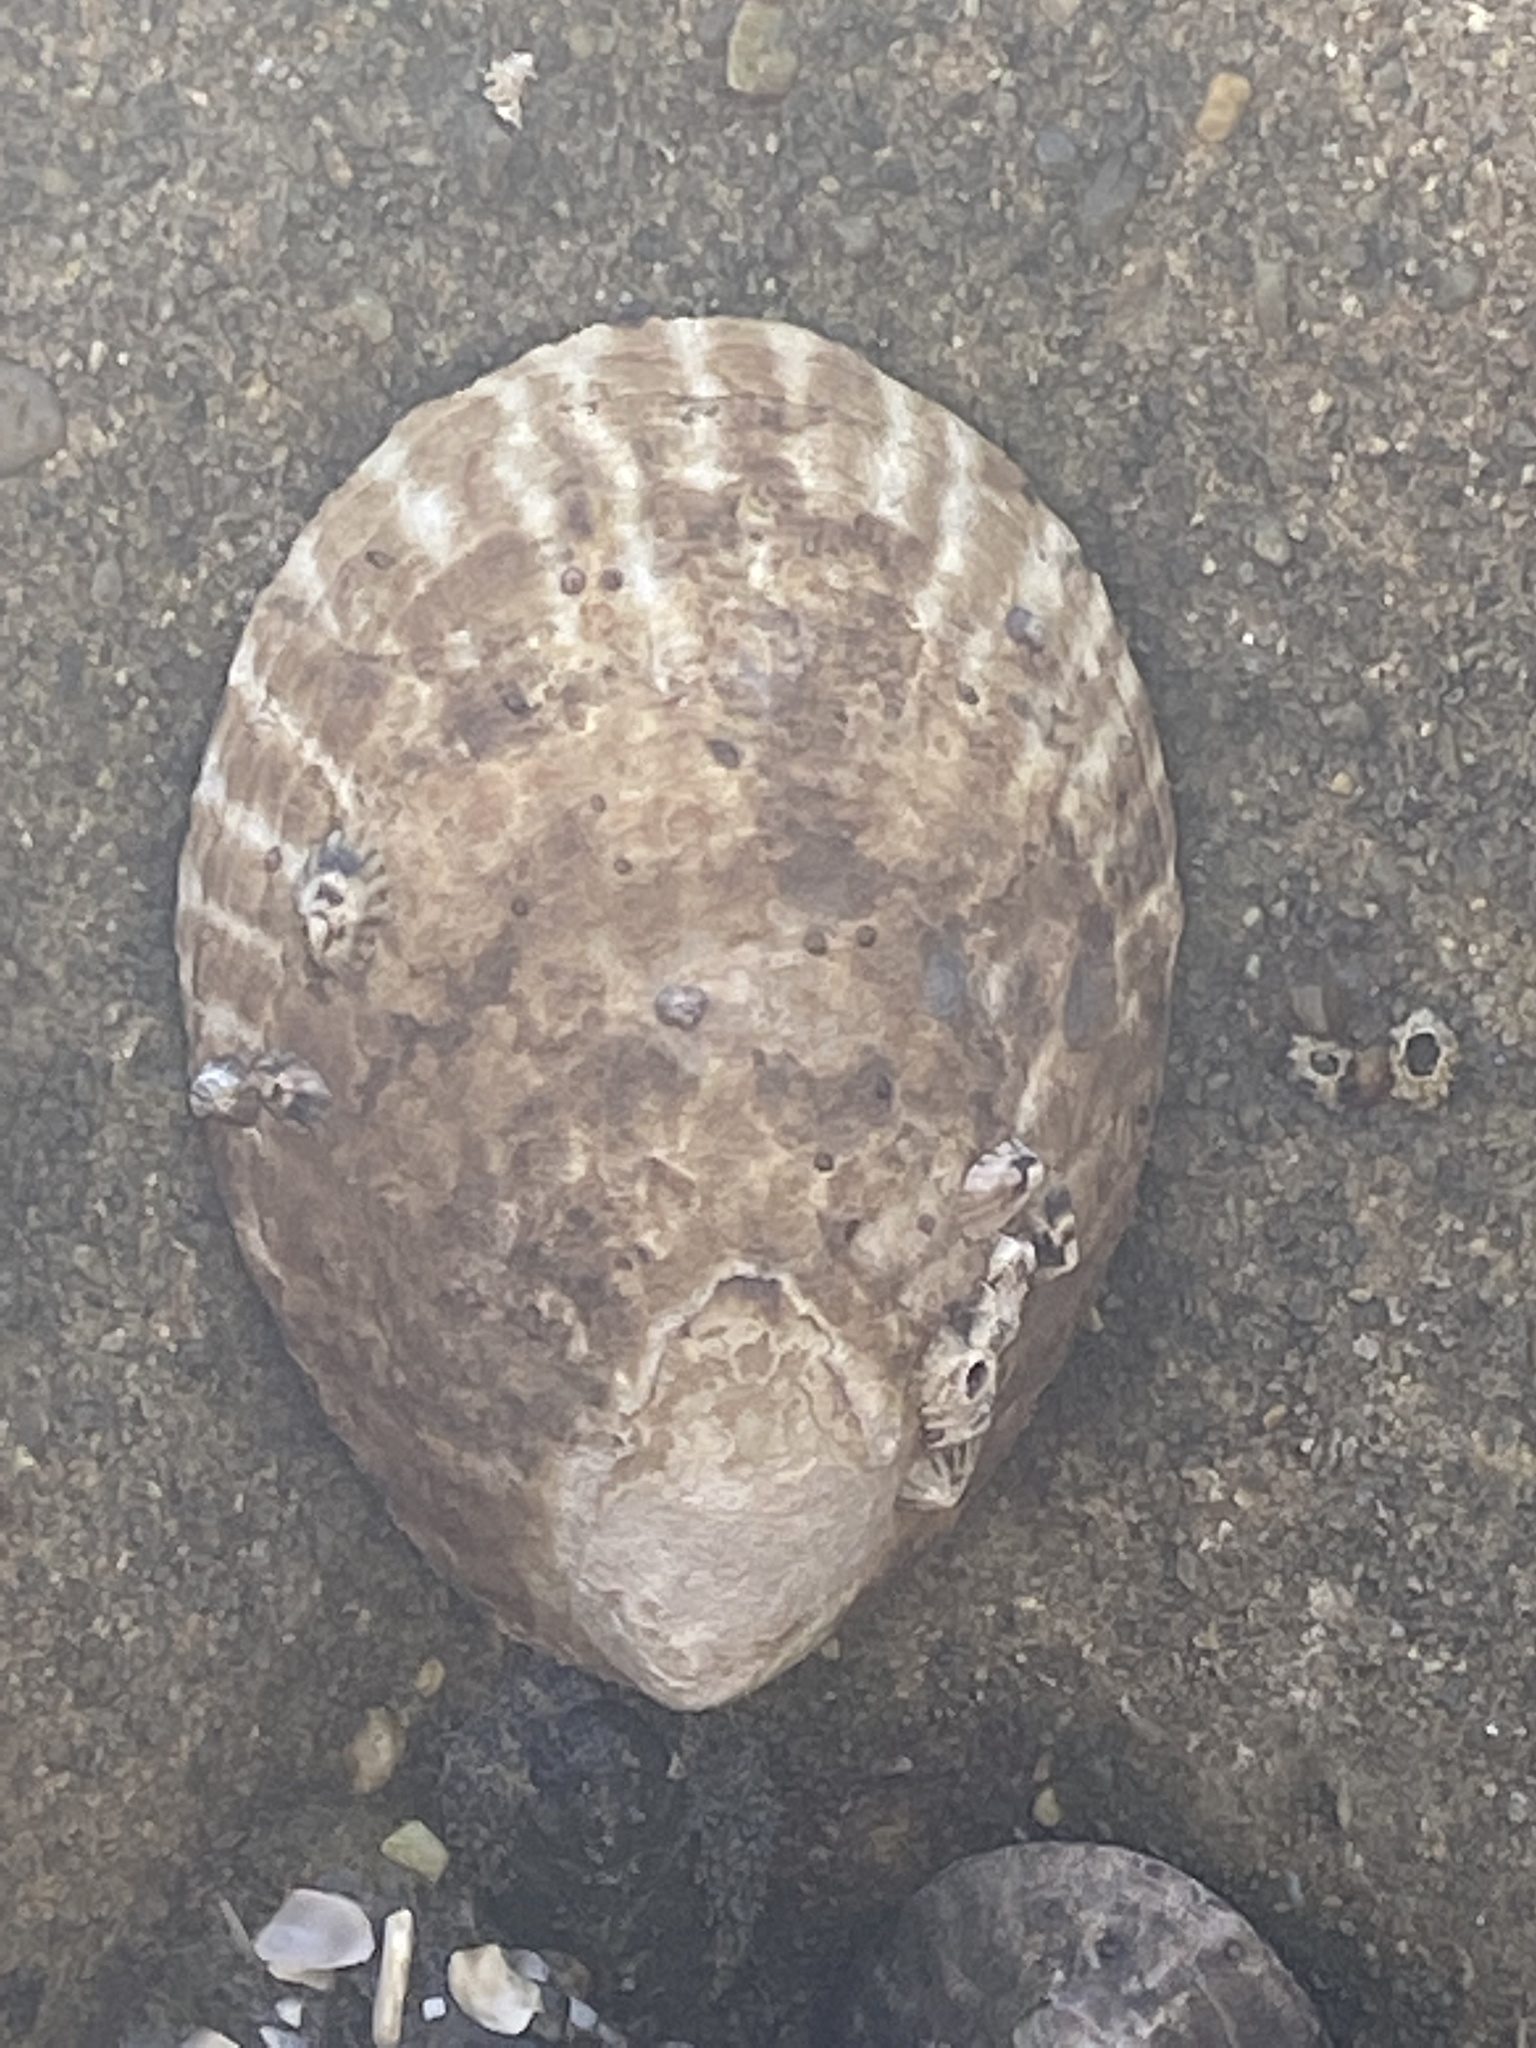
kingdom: Animalia
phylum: Mollusca
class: Gastropoda
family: Lottiidae
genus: Lottia
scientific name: Lottia gigantea
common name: Owl limpet
